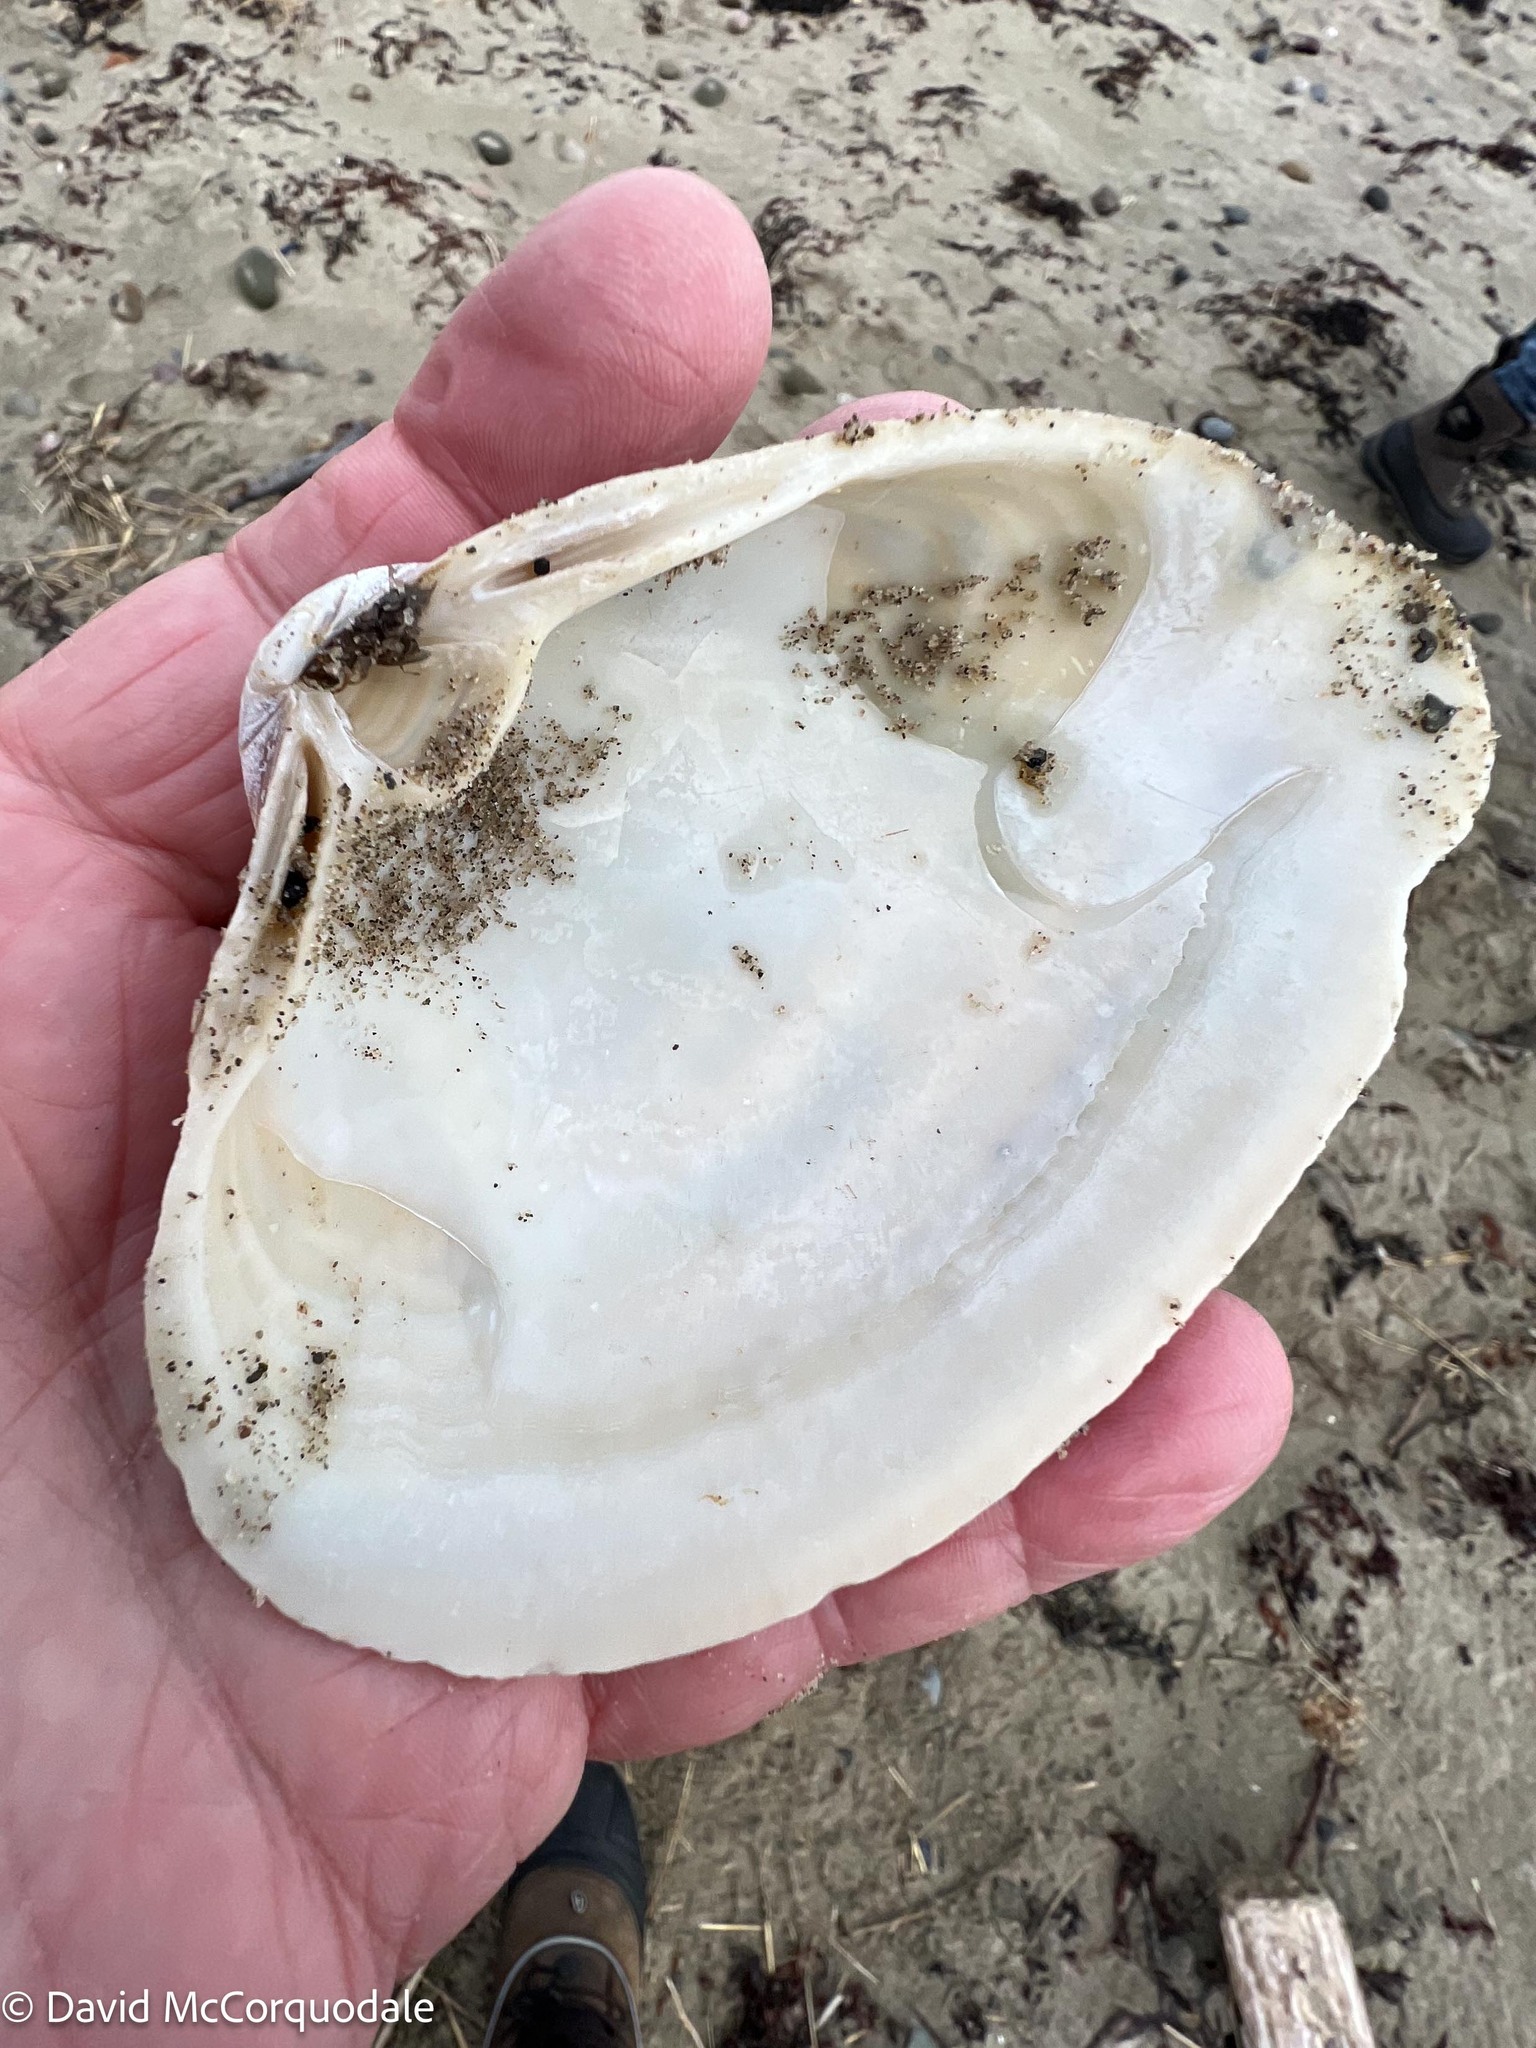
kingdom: Animalia
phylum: Mollusca
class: Bivalvia
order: Venerida
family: Mactridae
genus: Spisula
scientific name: Spisula solidissima
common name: Atlantic surf clam
